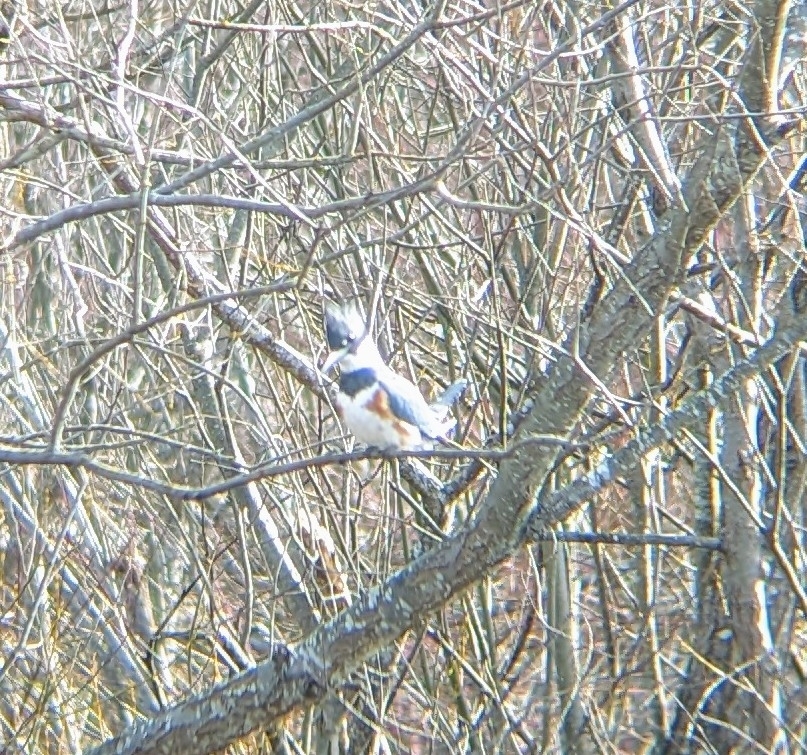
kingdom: Animalia
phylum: Chordata
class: Aves
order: Coraciiformes
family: Alcedinidae
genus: Megaceryle
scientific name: Megaceryle alcyon
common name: Belted kingfisher
